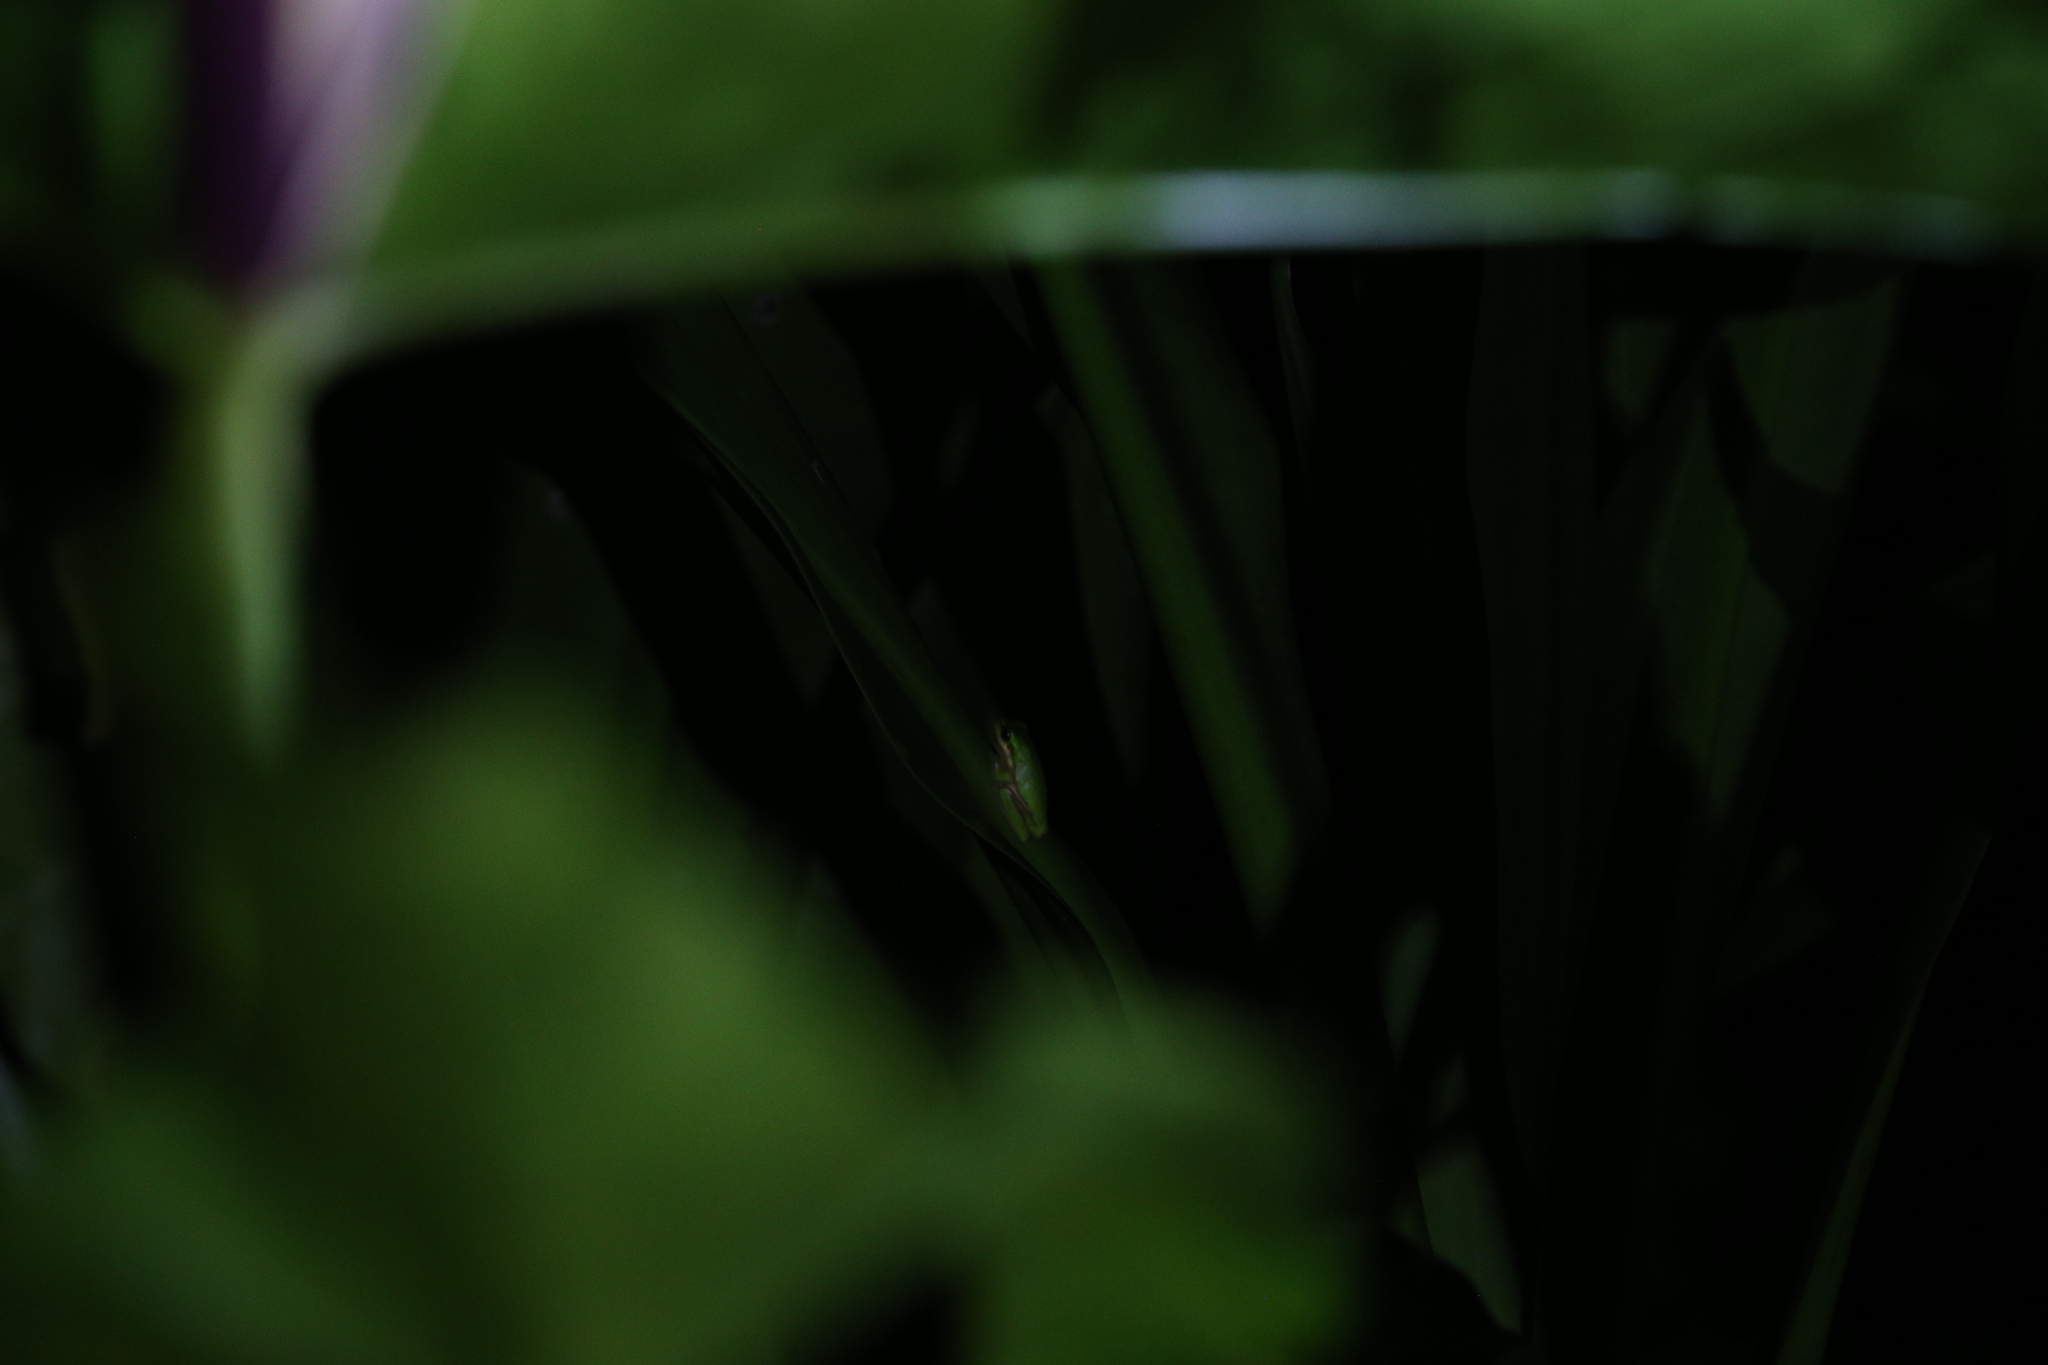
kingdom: Animalia
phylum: Chordata
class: Amphibia
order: Anura
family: Pelodryadidae
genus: Litoria
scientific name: Litoria fallax
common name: Eastern dwarf treefrog
